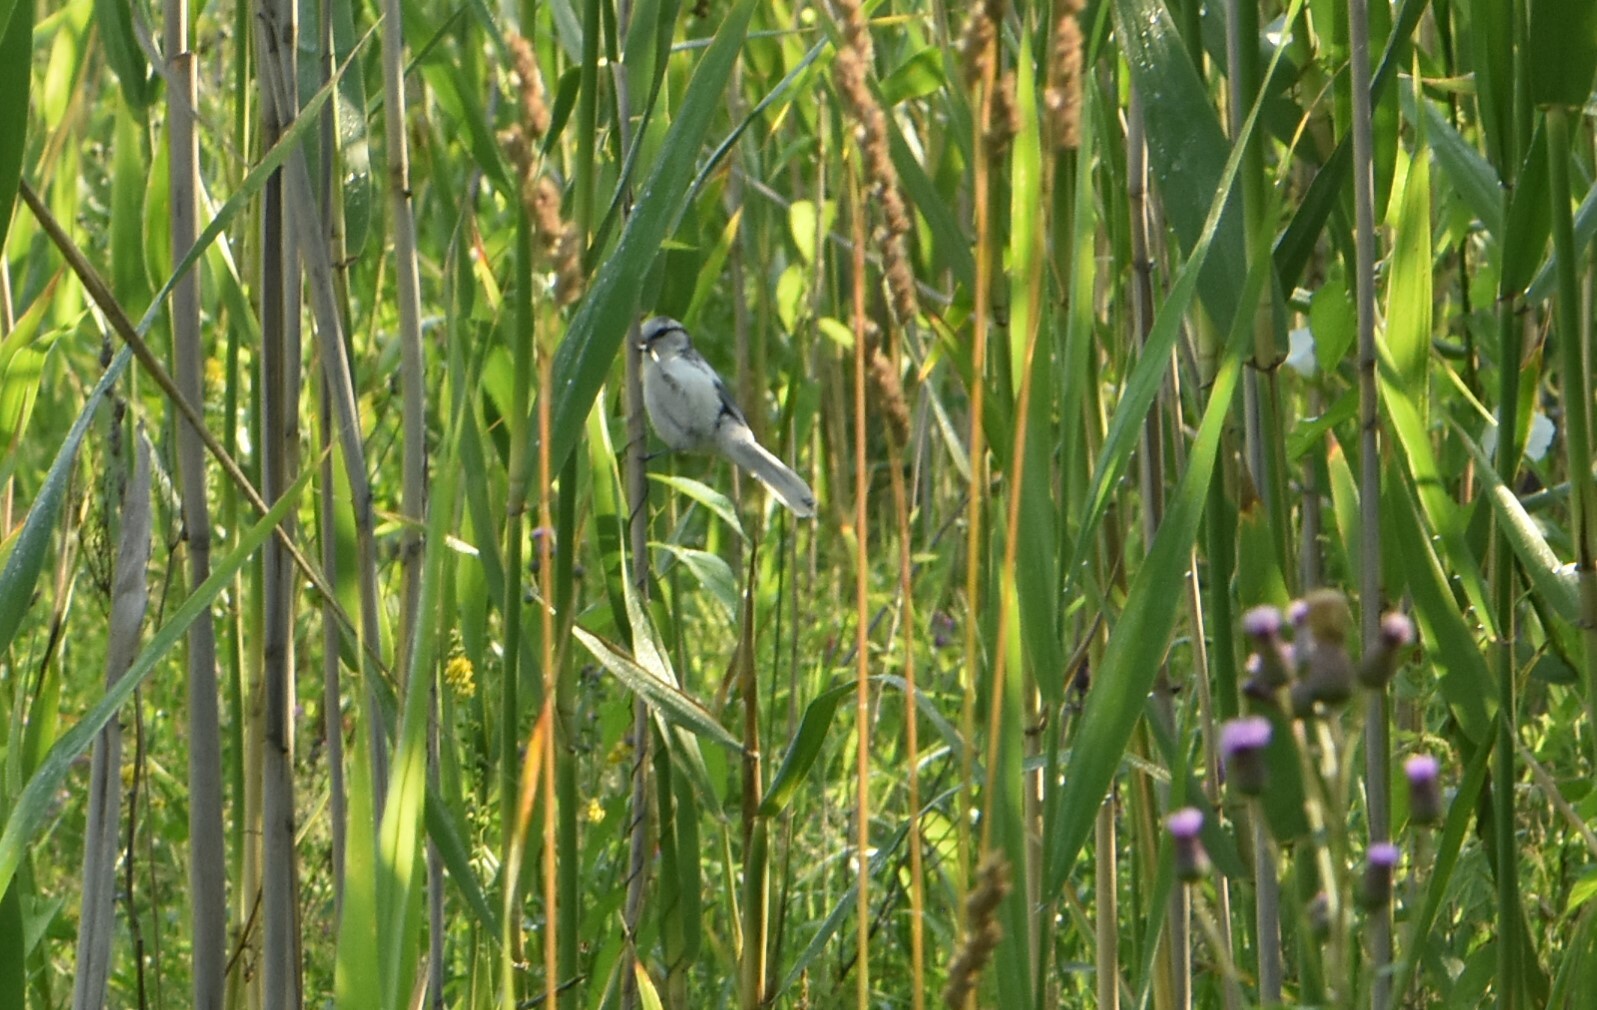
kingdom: Animalia
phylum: Chordata
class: Aves
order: Passeriformes
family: Paridae
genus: Cyanistes
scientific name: Cyanistes cyanus
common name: Azure tit
